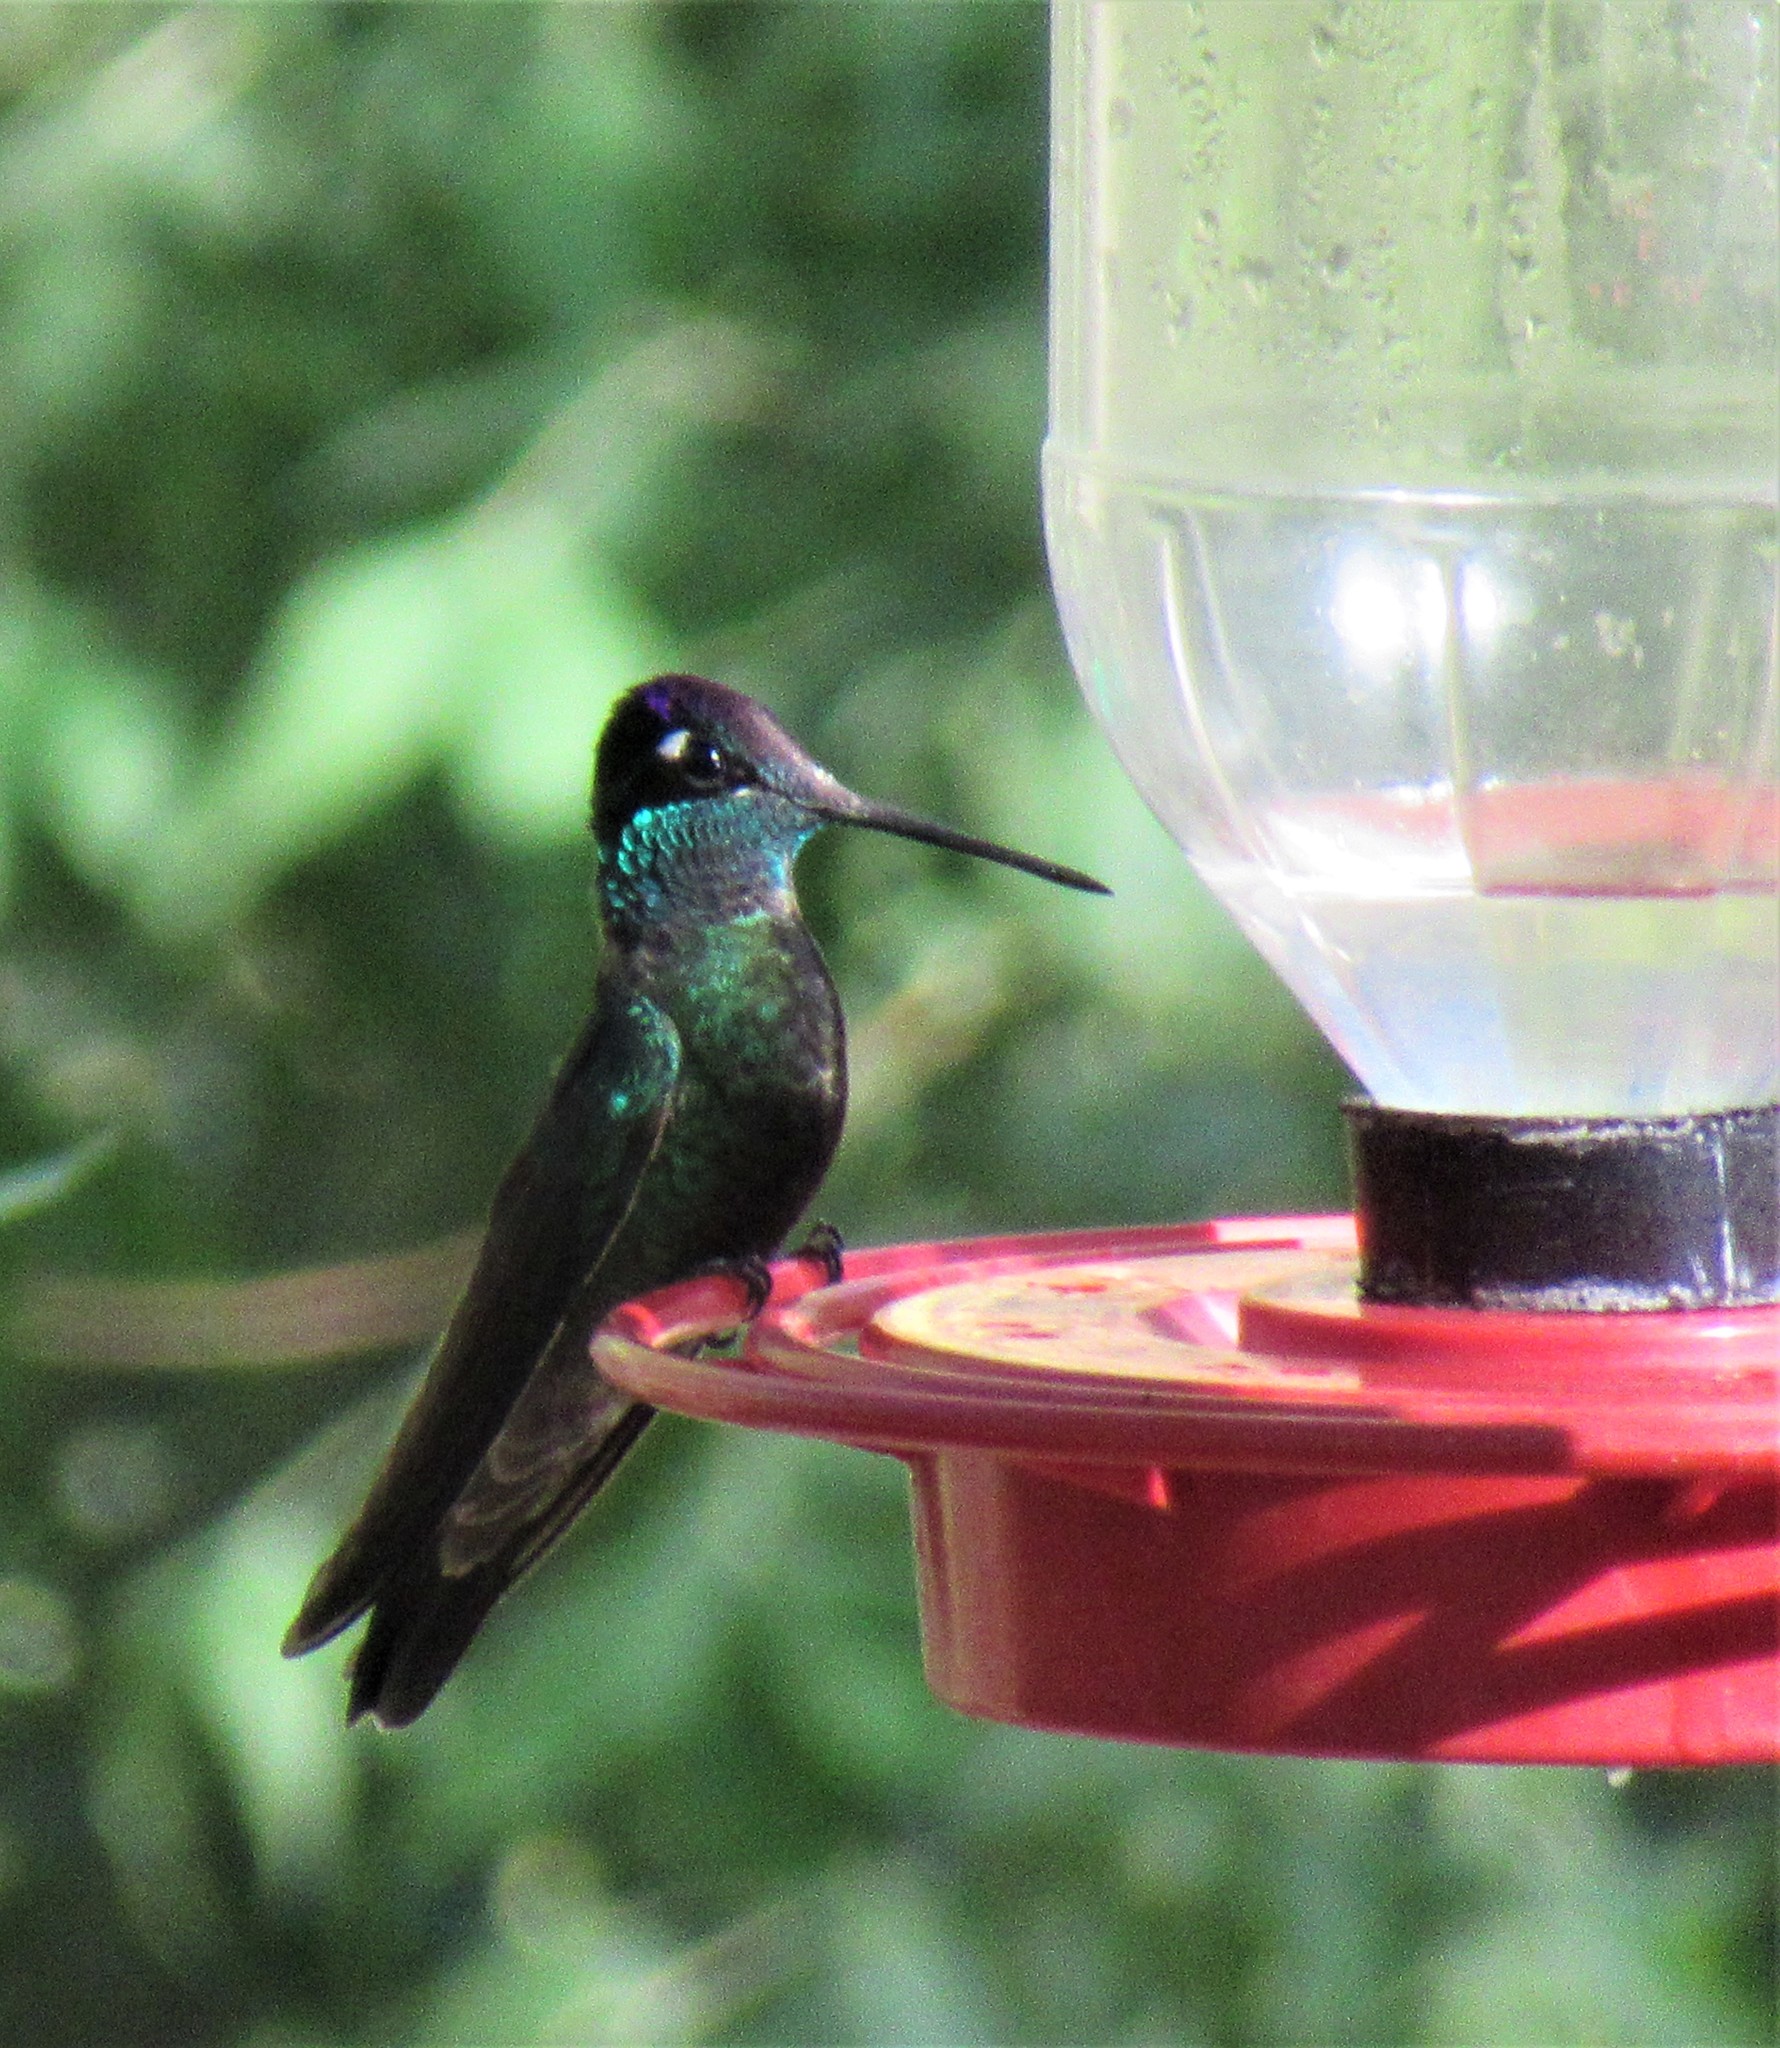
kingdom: Animalia
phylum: Chordata
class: Aves
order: Apodiformes
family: Trochilidae
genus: Eugenes
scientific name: Eugenes fulgens
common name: Magnificent hummingbird
